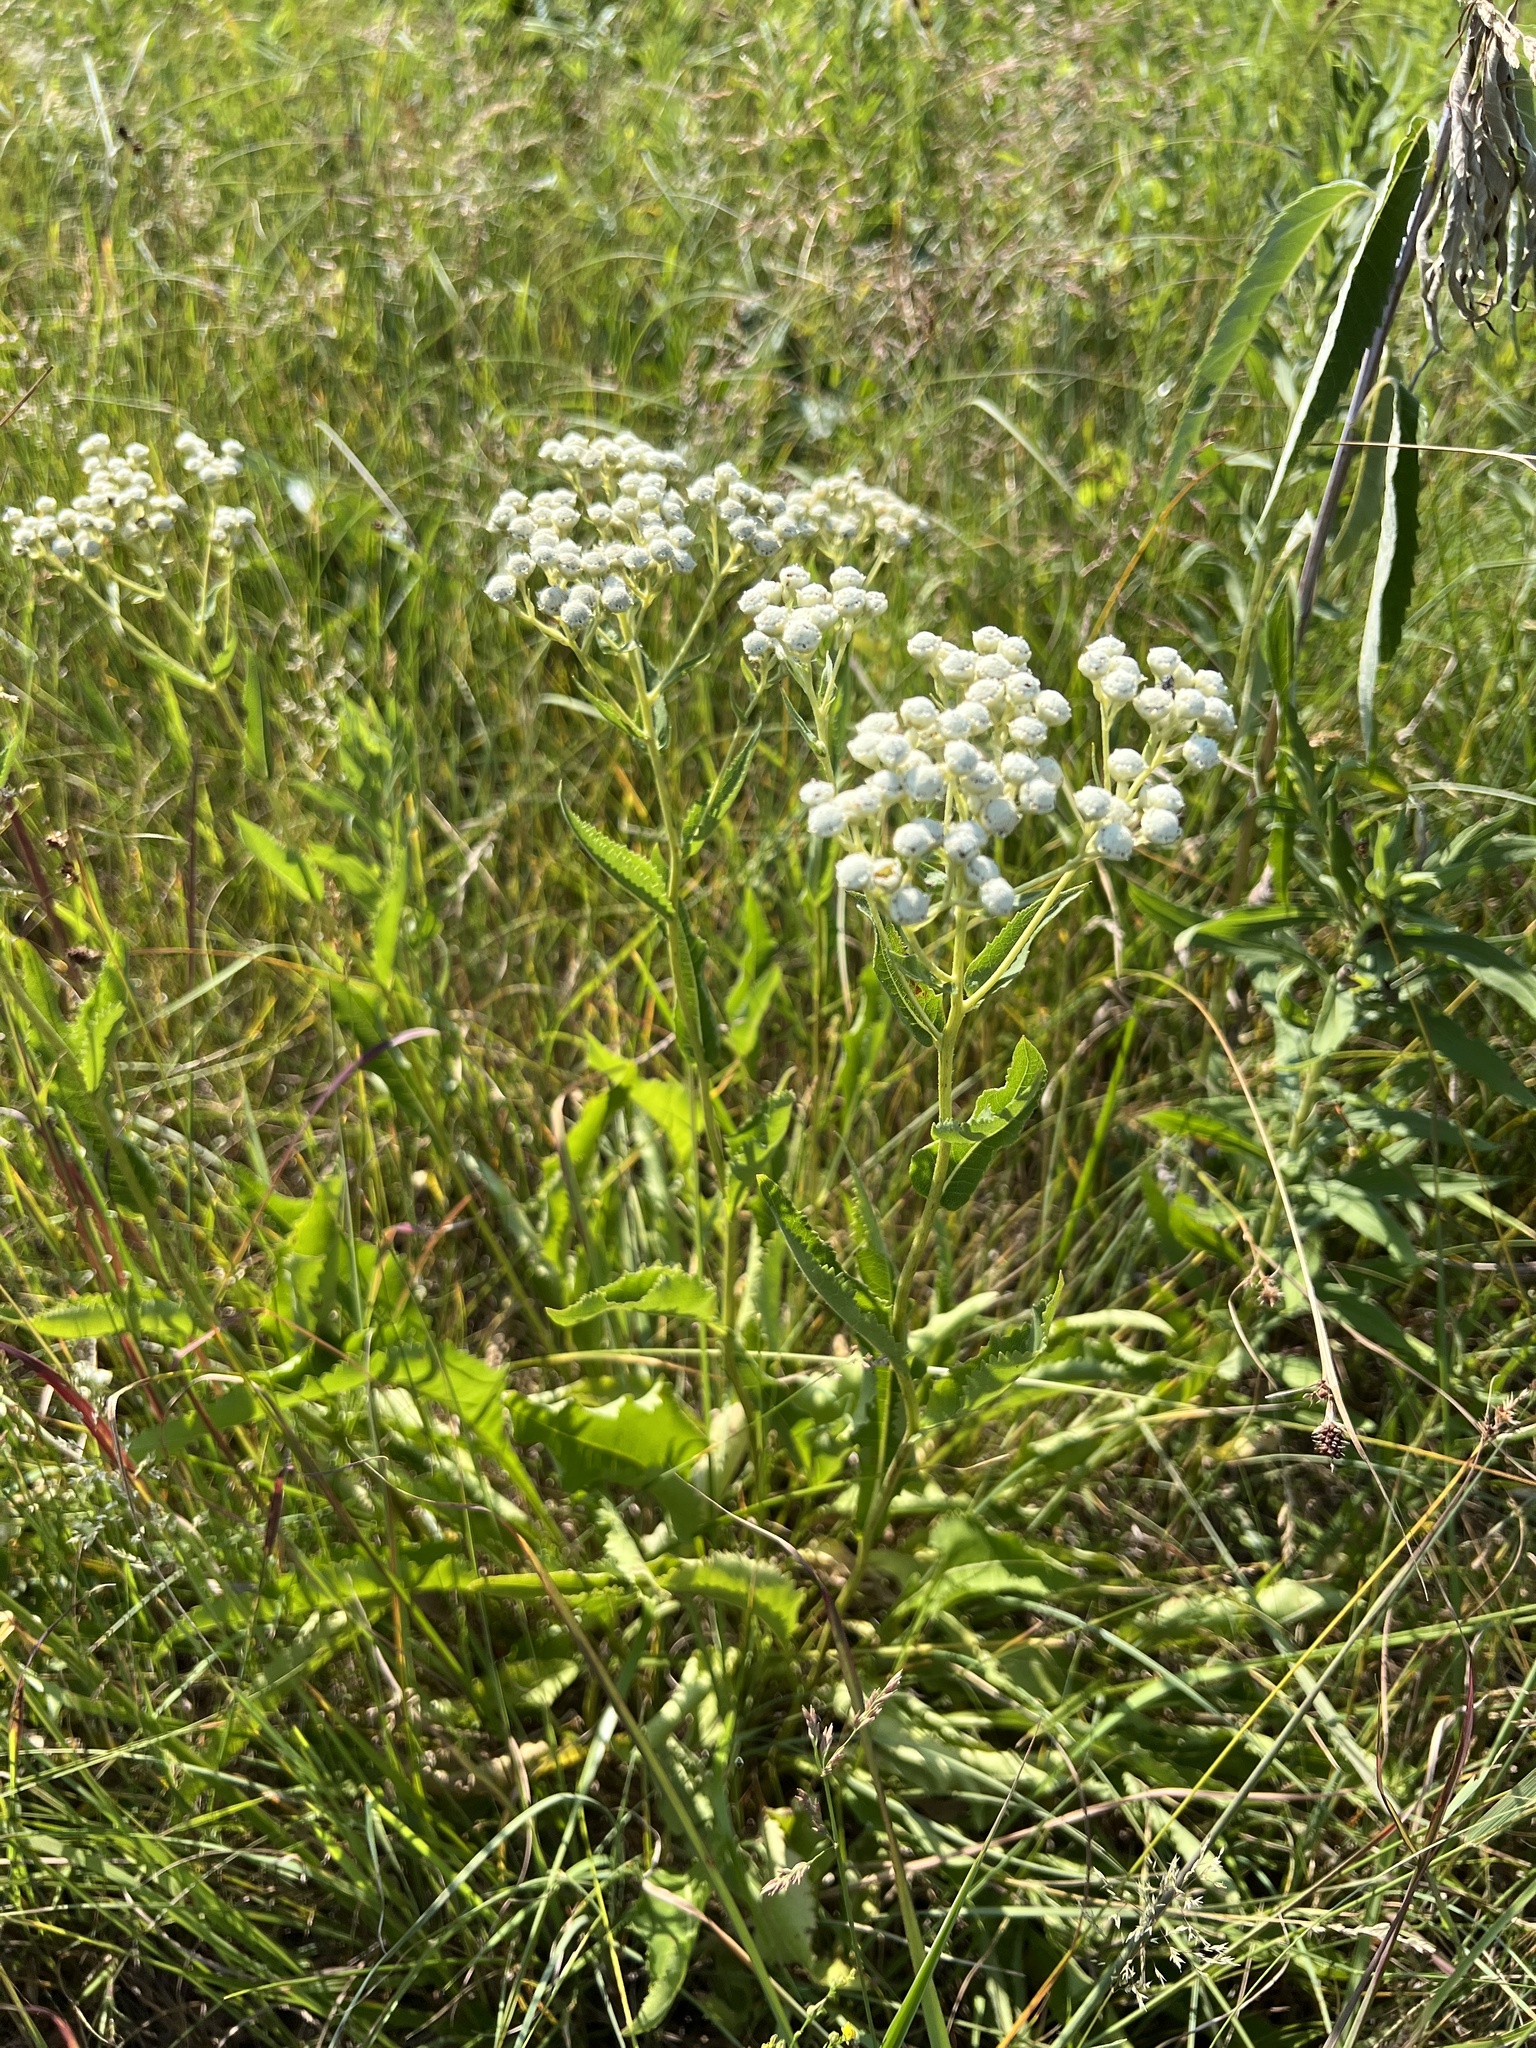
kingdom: Plantae
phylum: Tracheophyta
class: Magnoliopsida
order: Asterales
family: Asteraceae
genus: Parthenium
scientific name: Parthenium integrifolium
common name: American feverfew
